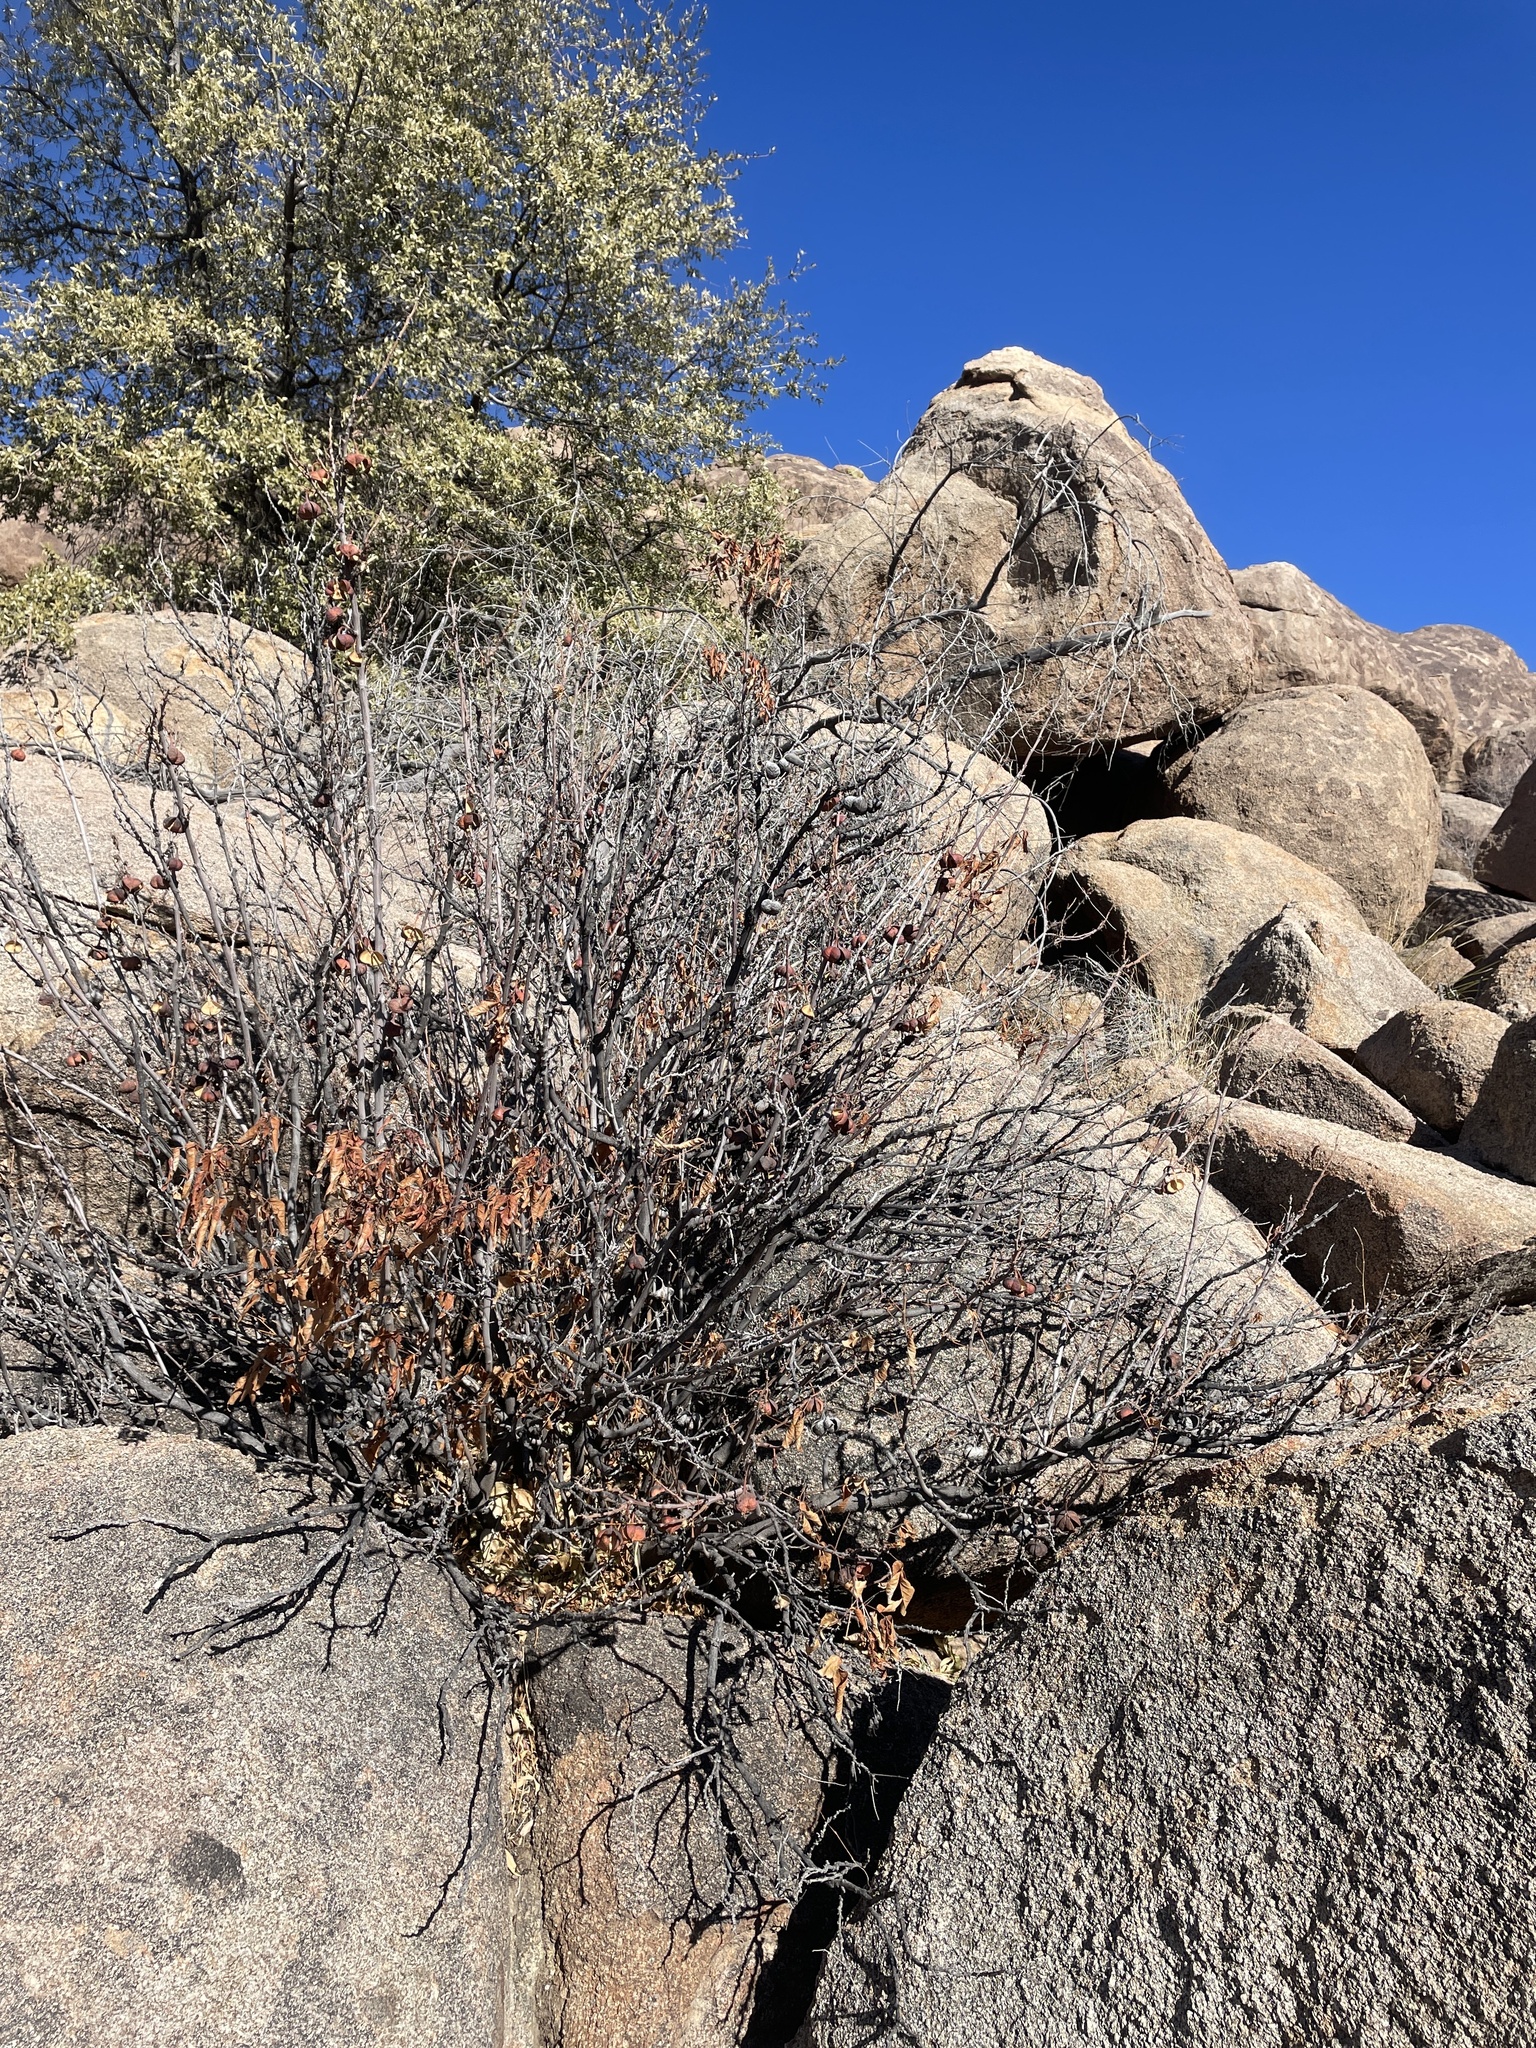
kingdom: Plantae
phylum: Tracheophyta
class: Magnoliopsida
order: Sapindales
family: Sapindaceae
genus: Ungnadia
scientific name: Ungnadia speciosa
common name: Texas-buckeye
